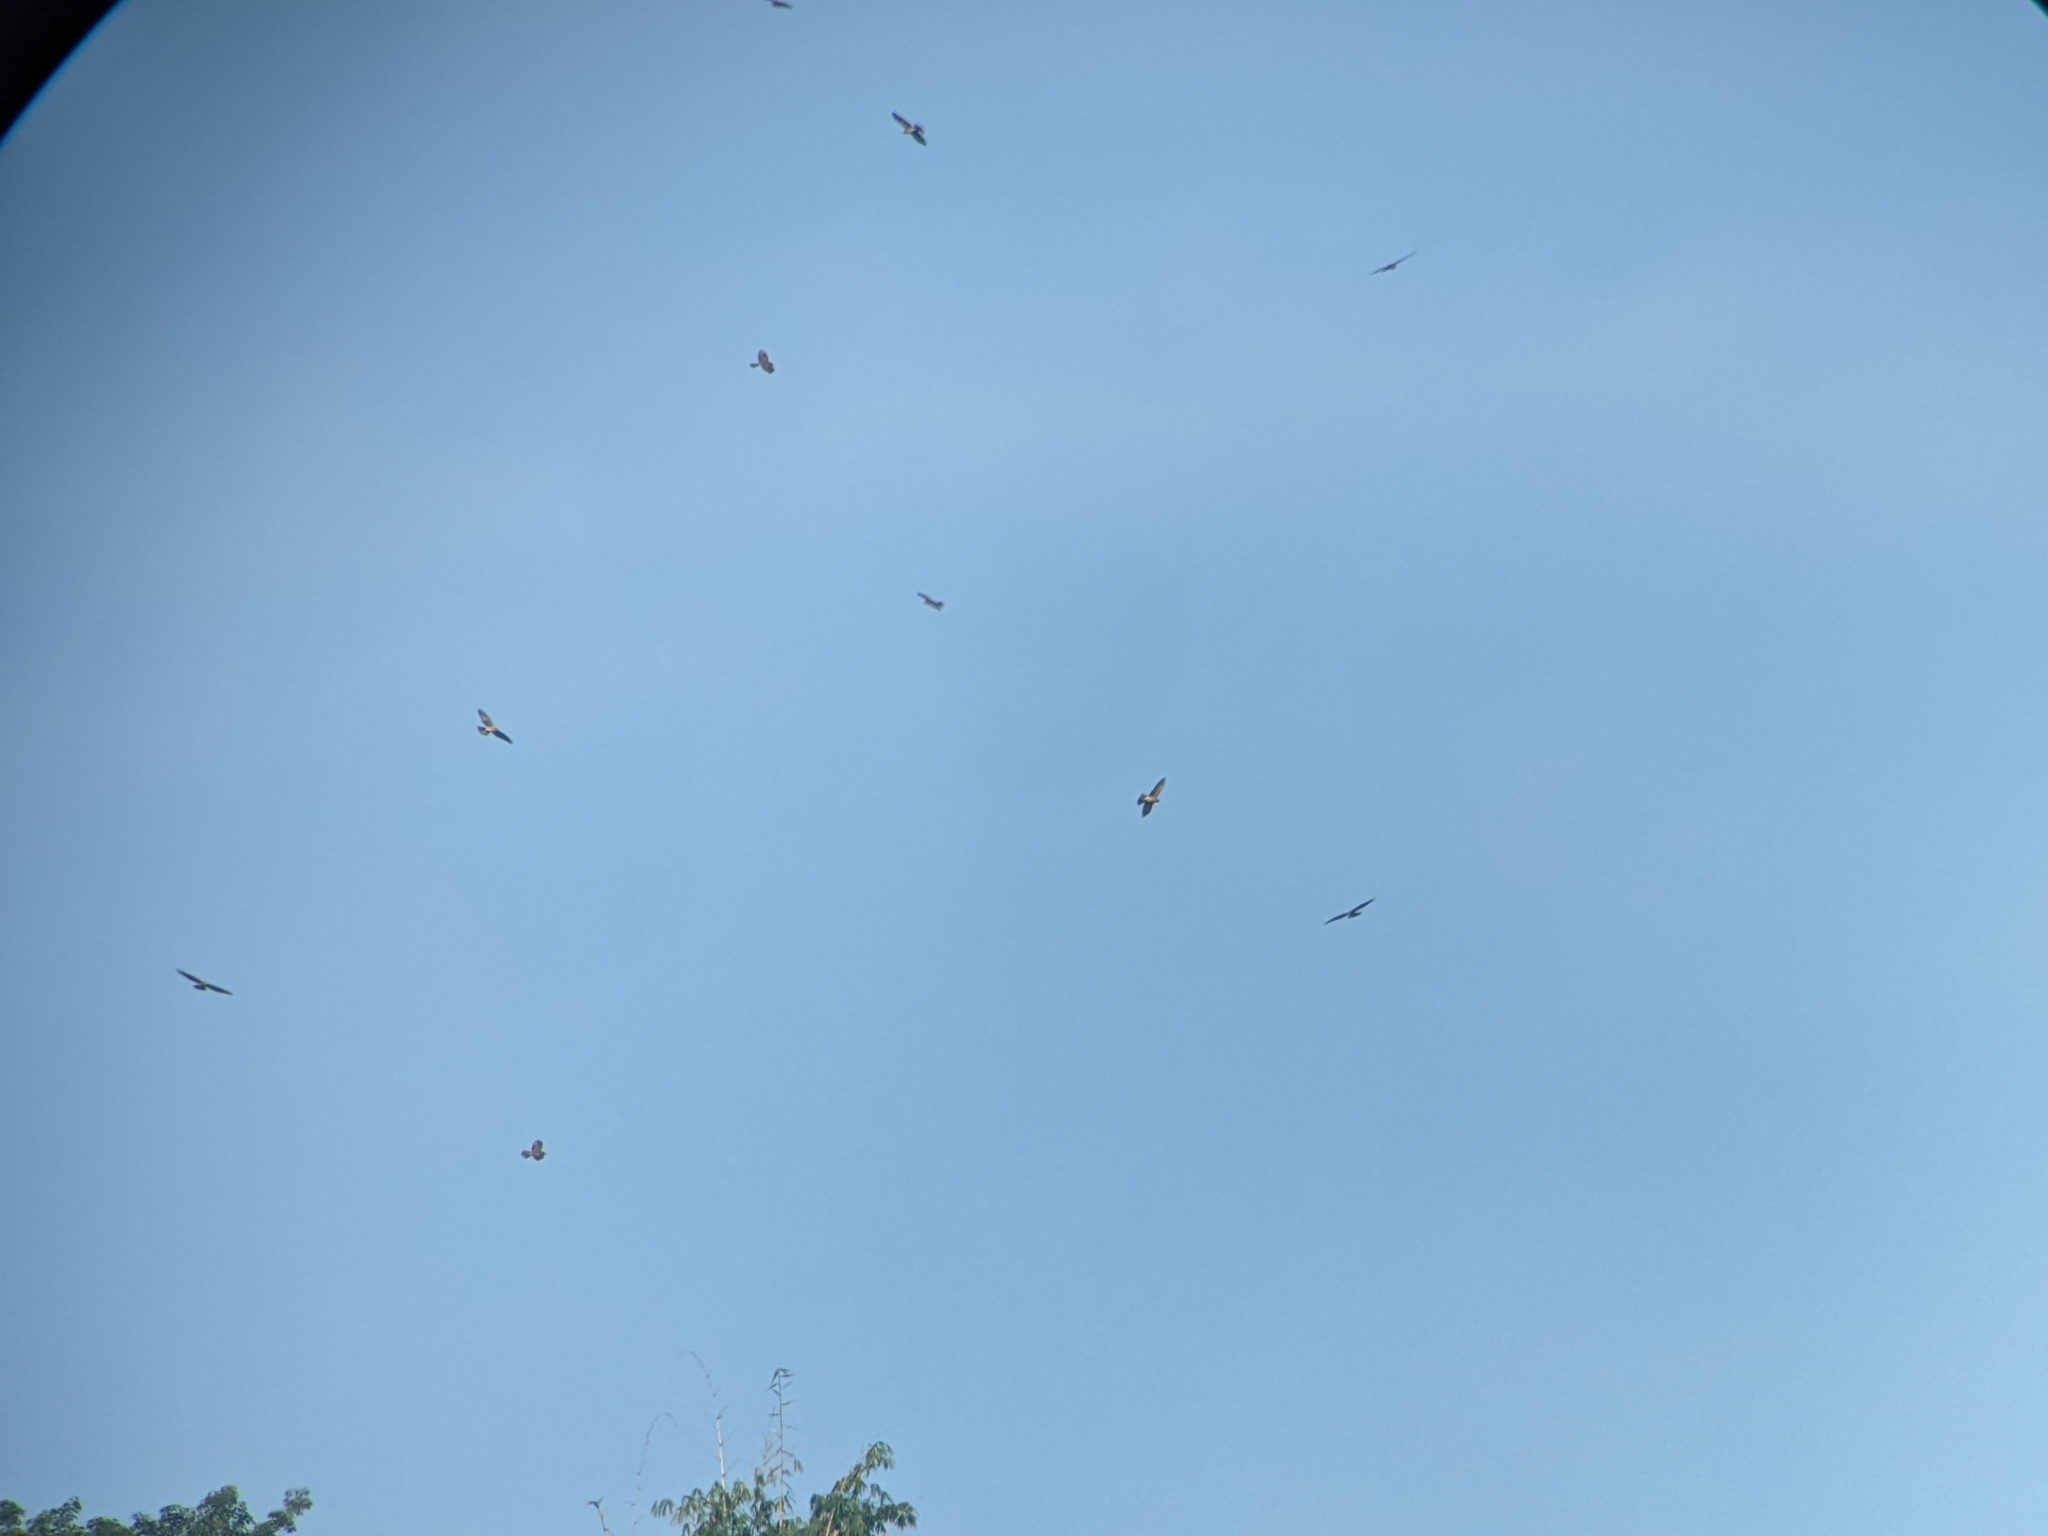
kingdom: Animalia
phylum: Chordata
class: Aves
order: Accipitriformes
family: Accipitridae
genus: Butastur
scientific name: Butastur indicus
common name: Grey-faced buzzard
